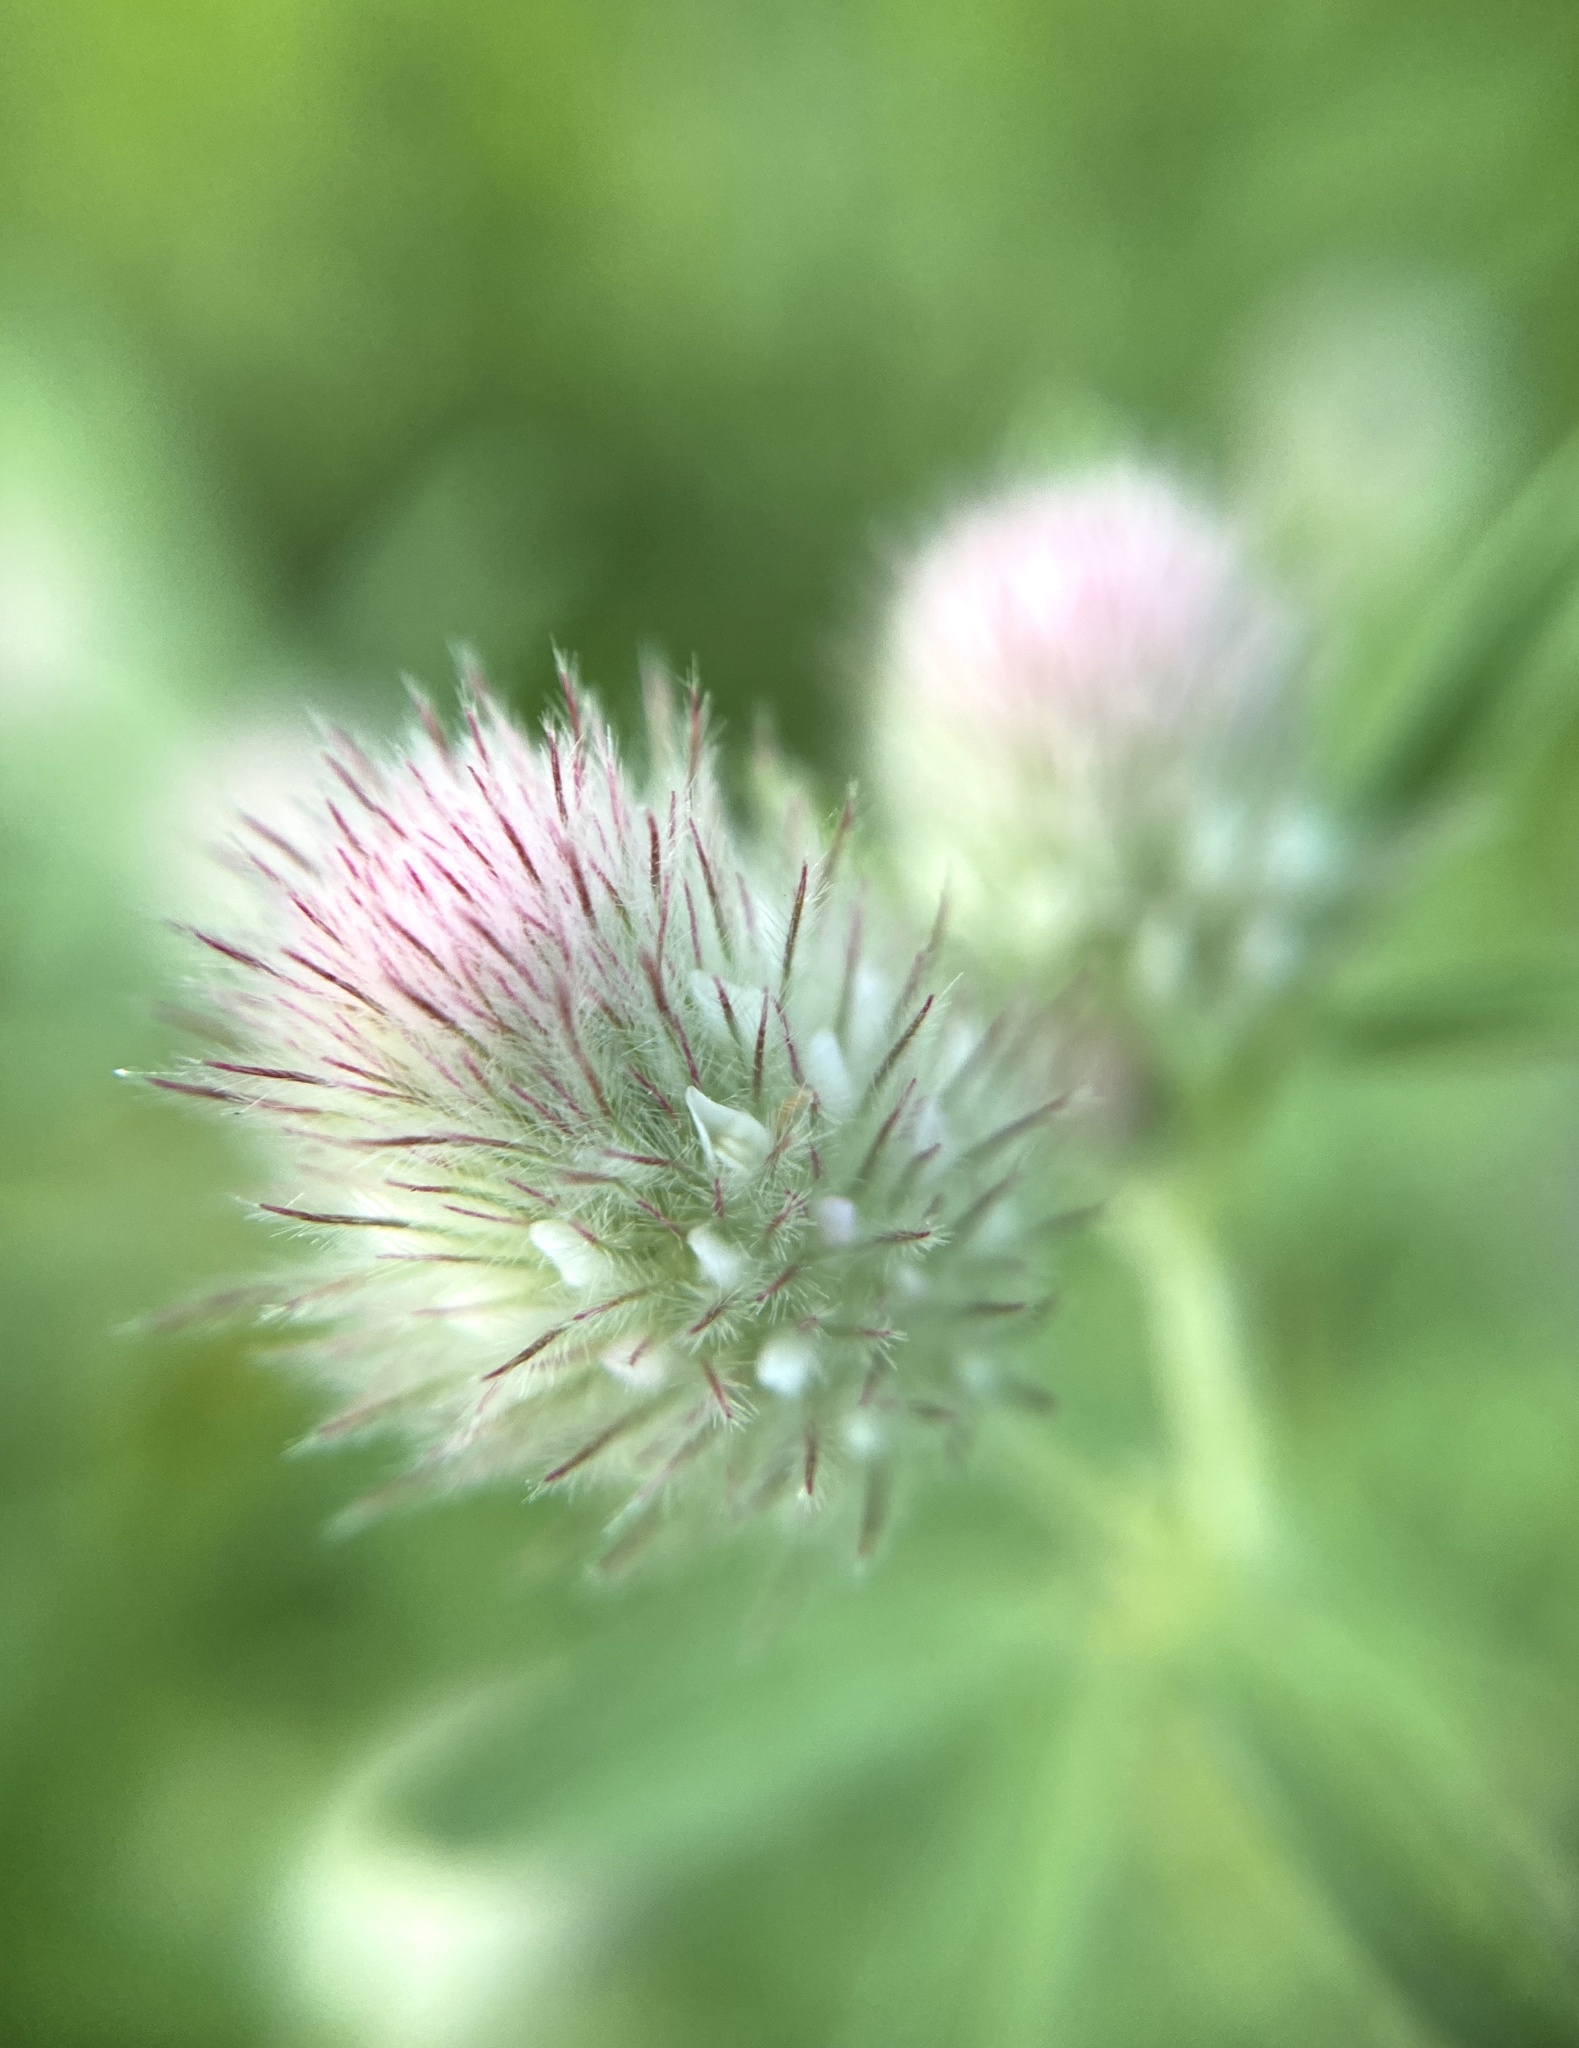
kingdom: Plantae
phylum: Tracheophyta
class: Magnoliopsida
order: Fabales
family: Fabaceae
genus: Trifolium
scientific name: Trifolium arvense
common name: Hare's-foot clover
